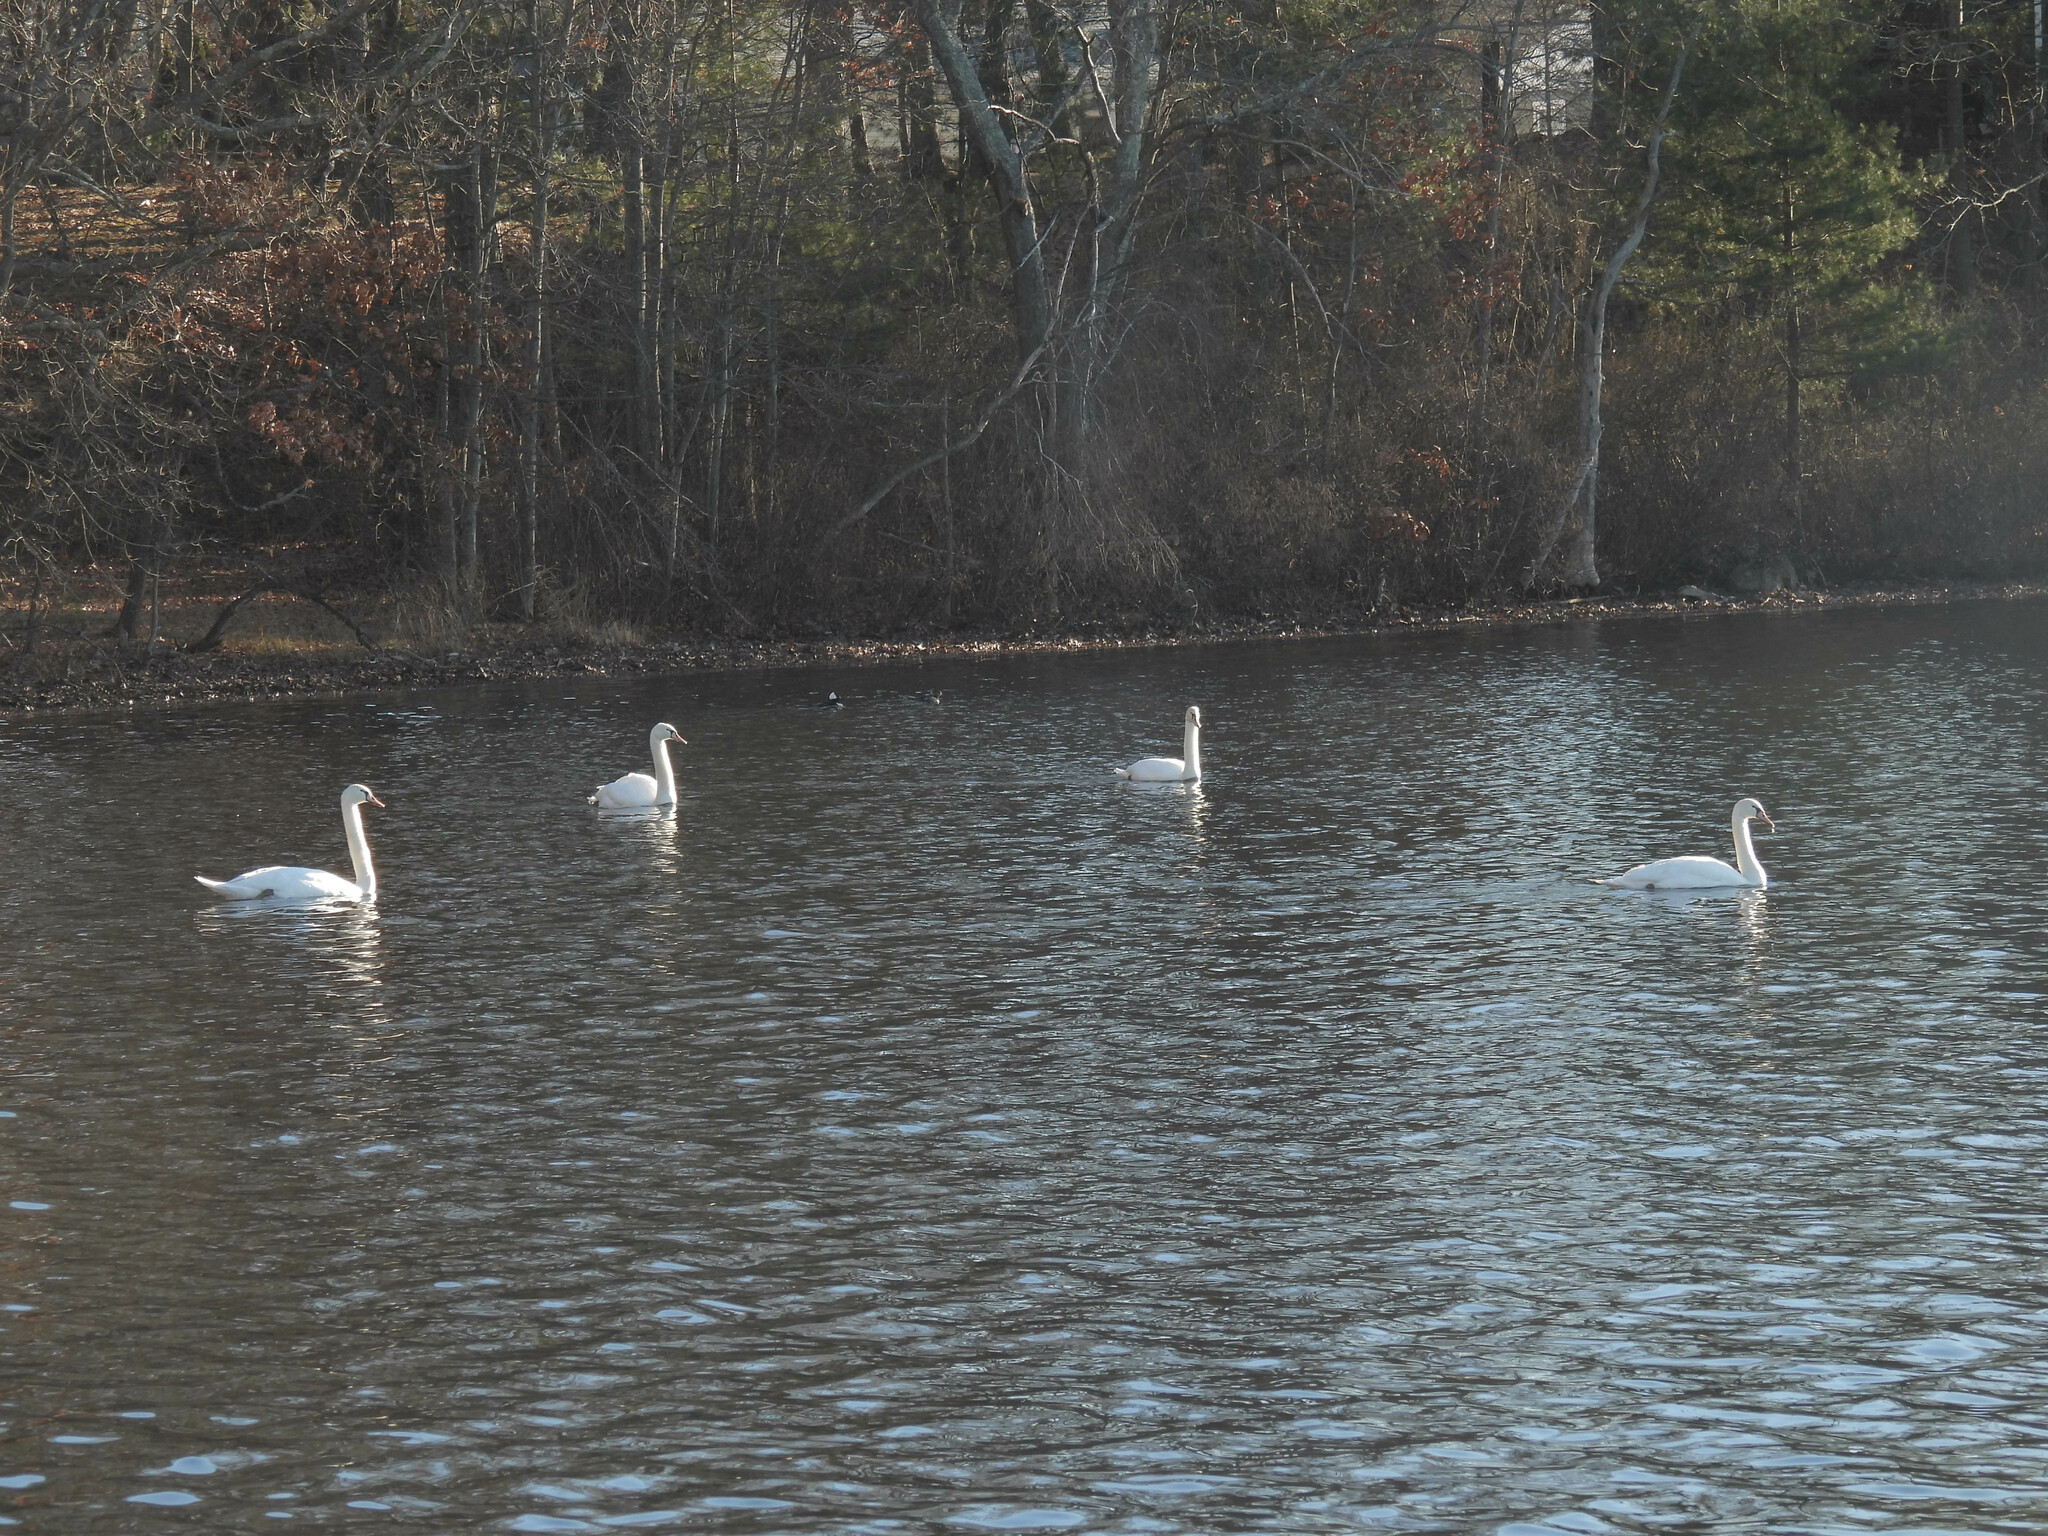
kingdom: Animalia
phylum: Chordata
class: Aves
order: Anseriformes
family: Anatidae
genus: Cygnus
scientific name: Cygnus olor
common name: Mute swan
